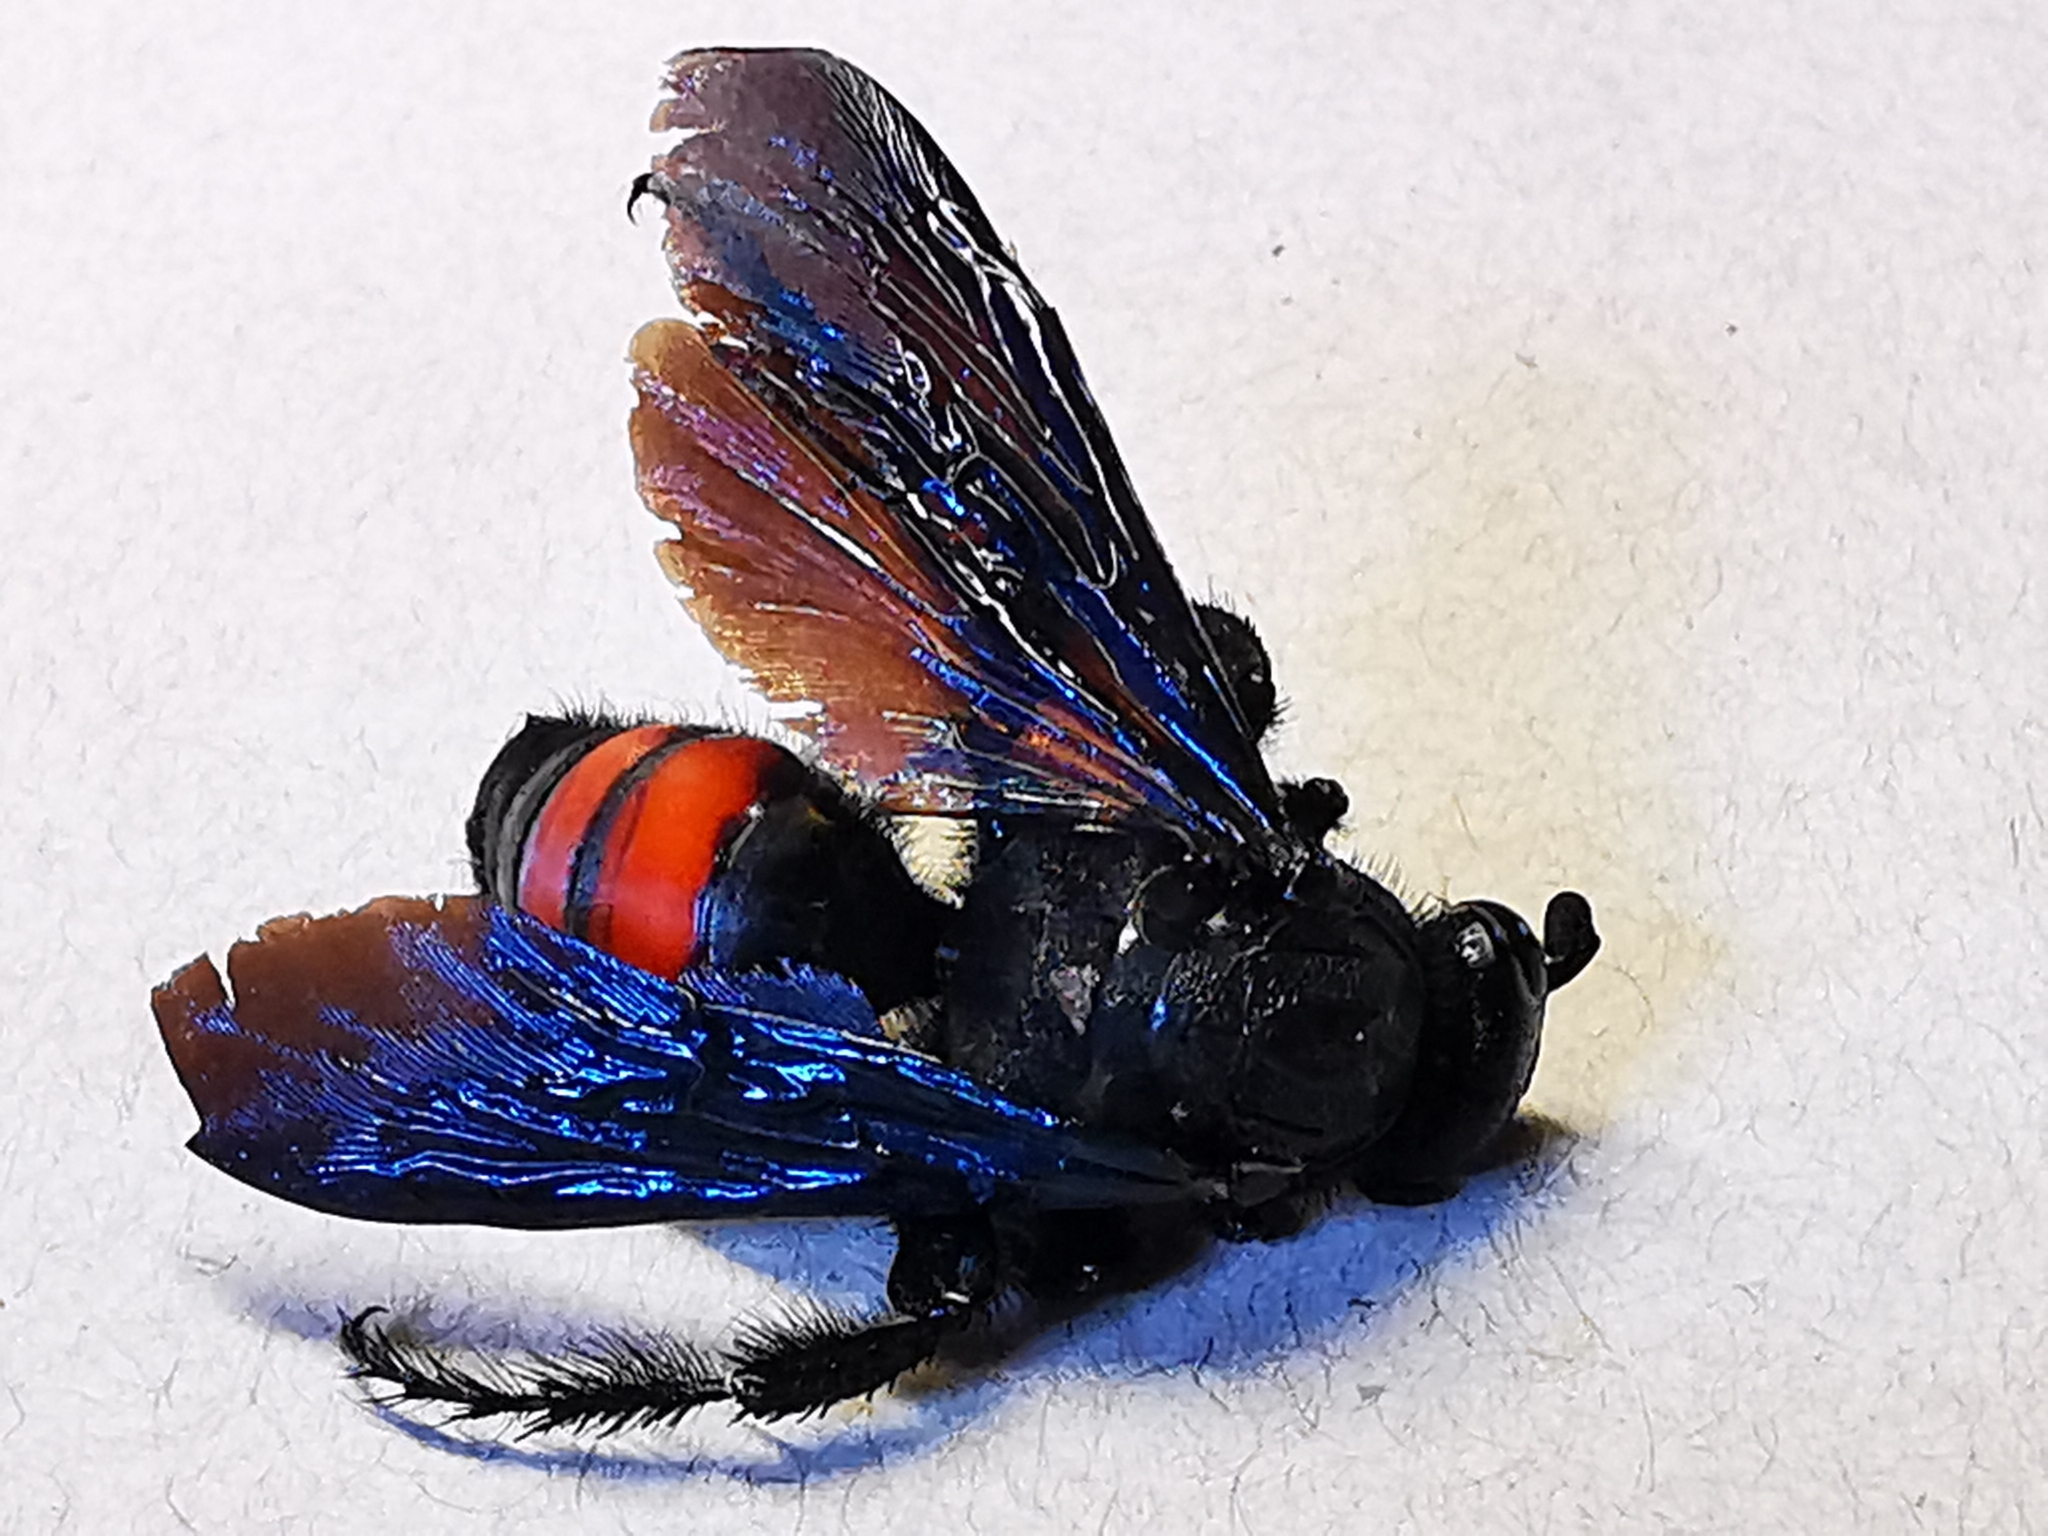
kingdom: Animalia
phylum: Arthropoda
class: Insecta
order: Hymenoptera
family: Scoliidae
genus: Pygodasis
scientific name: Pygodasis ephippium
